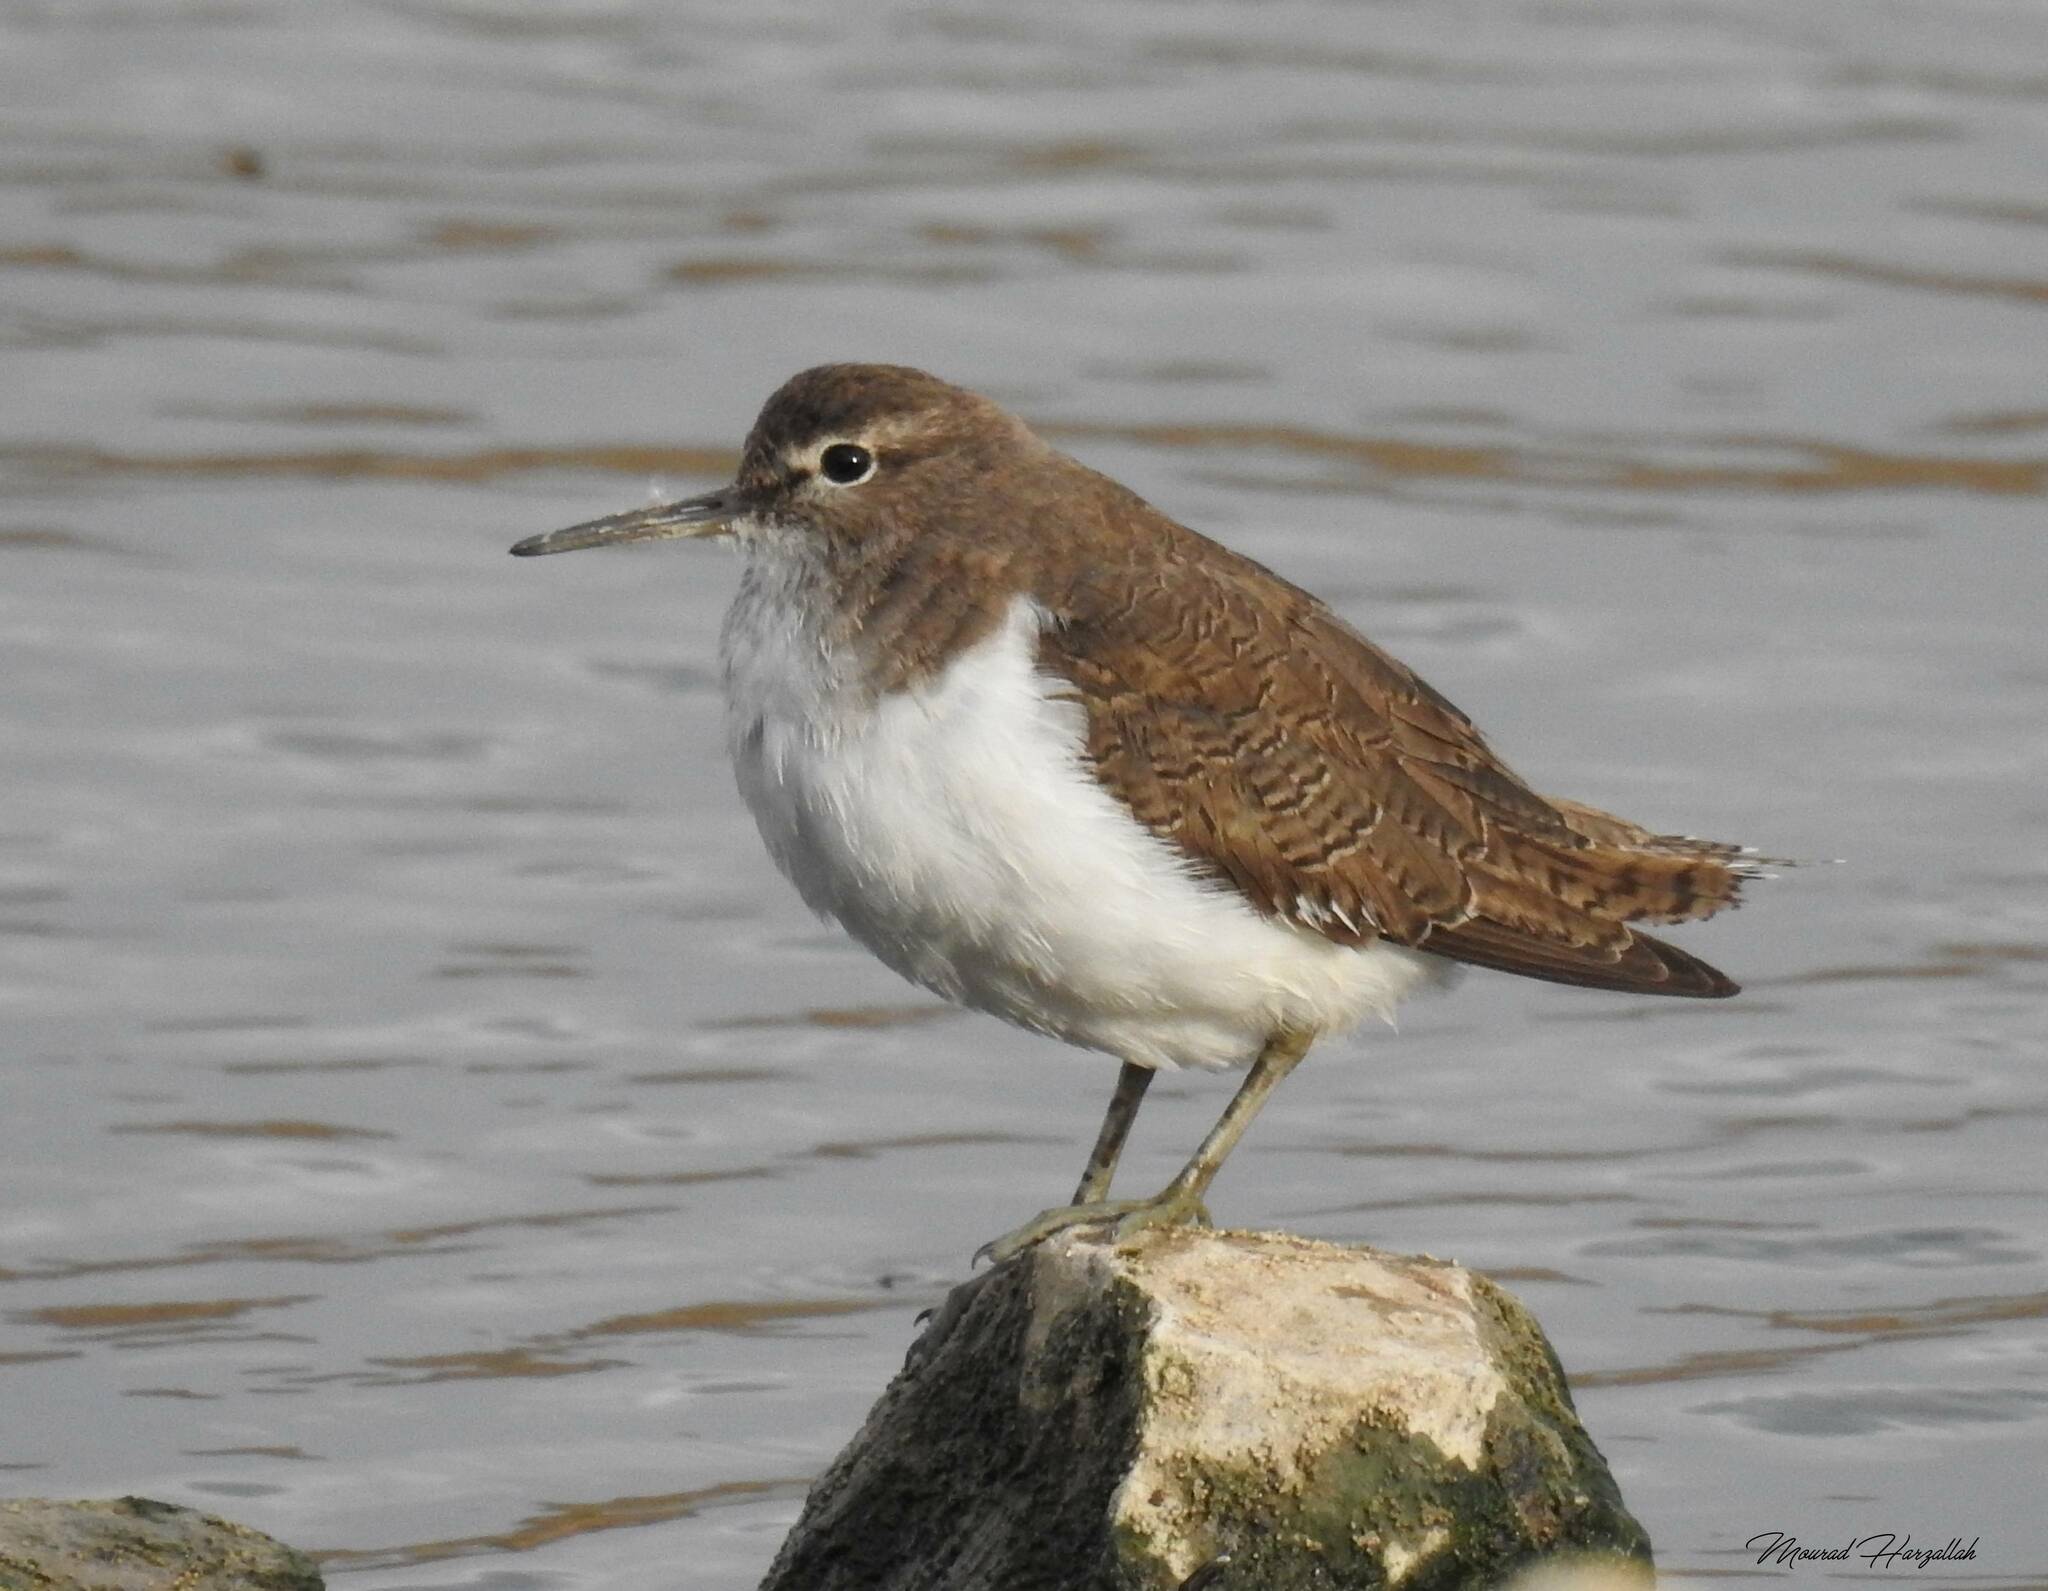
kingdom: Animalia
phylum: Chordata
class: Aves
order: Charadriiformes
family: Scolopacidae
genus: Actitis
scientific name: Actitis hypoleucos
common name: Common sandpiper
